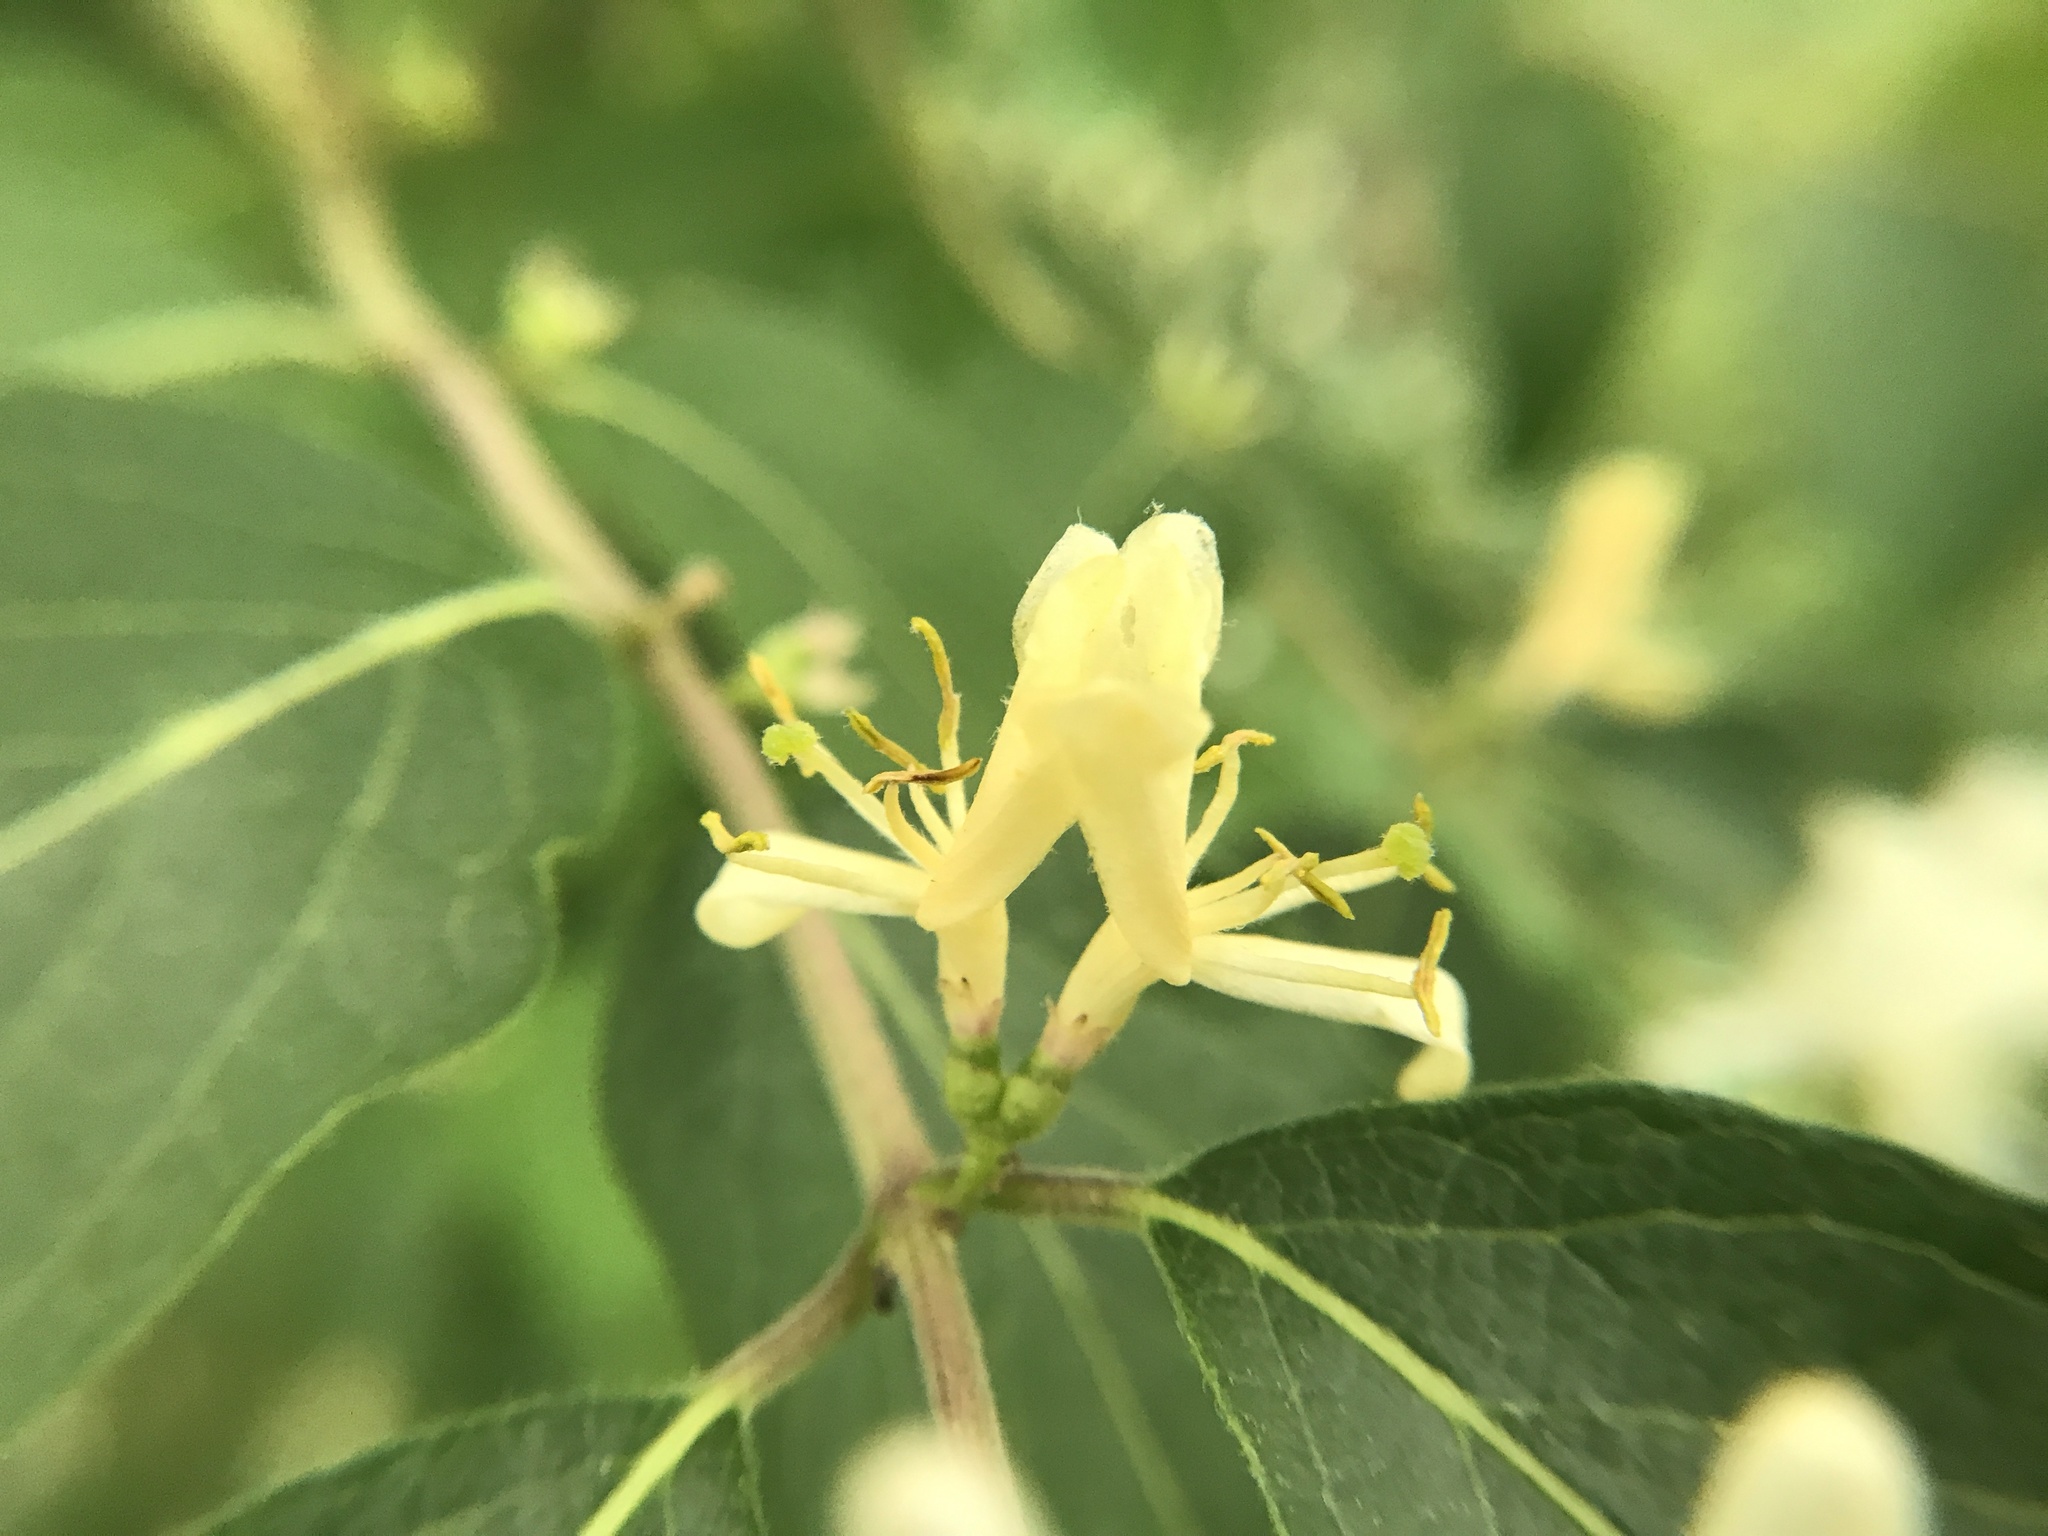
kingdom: Plantae
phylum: Tracheophyta
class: Magnoliopsida
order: Dipsacales
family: Caprifoliaceae
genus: Lonicera
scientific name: Lonicera maackii
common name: Amur honeysuckle
